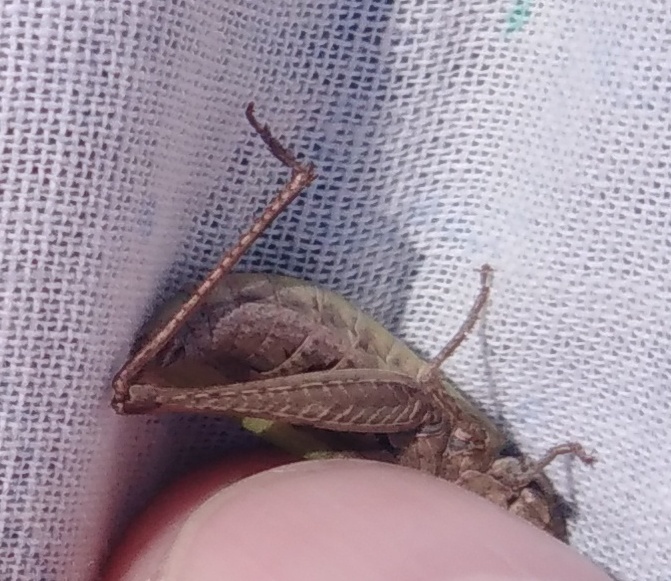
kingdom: Animalia
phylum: Arthropoda
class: Insecta
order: Orthoptera
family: Acrididae
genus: Chorthippus
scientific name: Chorthippus dorsatus
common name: Steppe grasshopper
